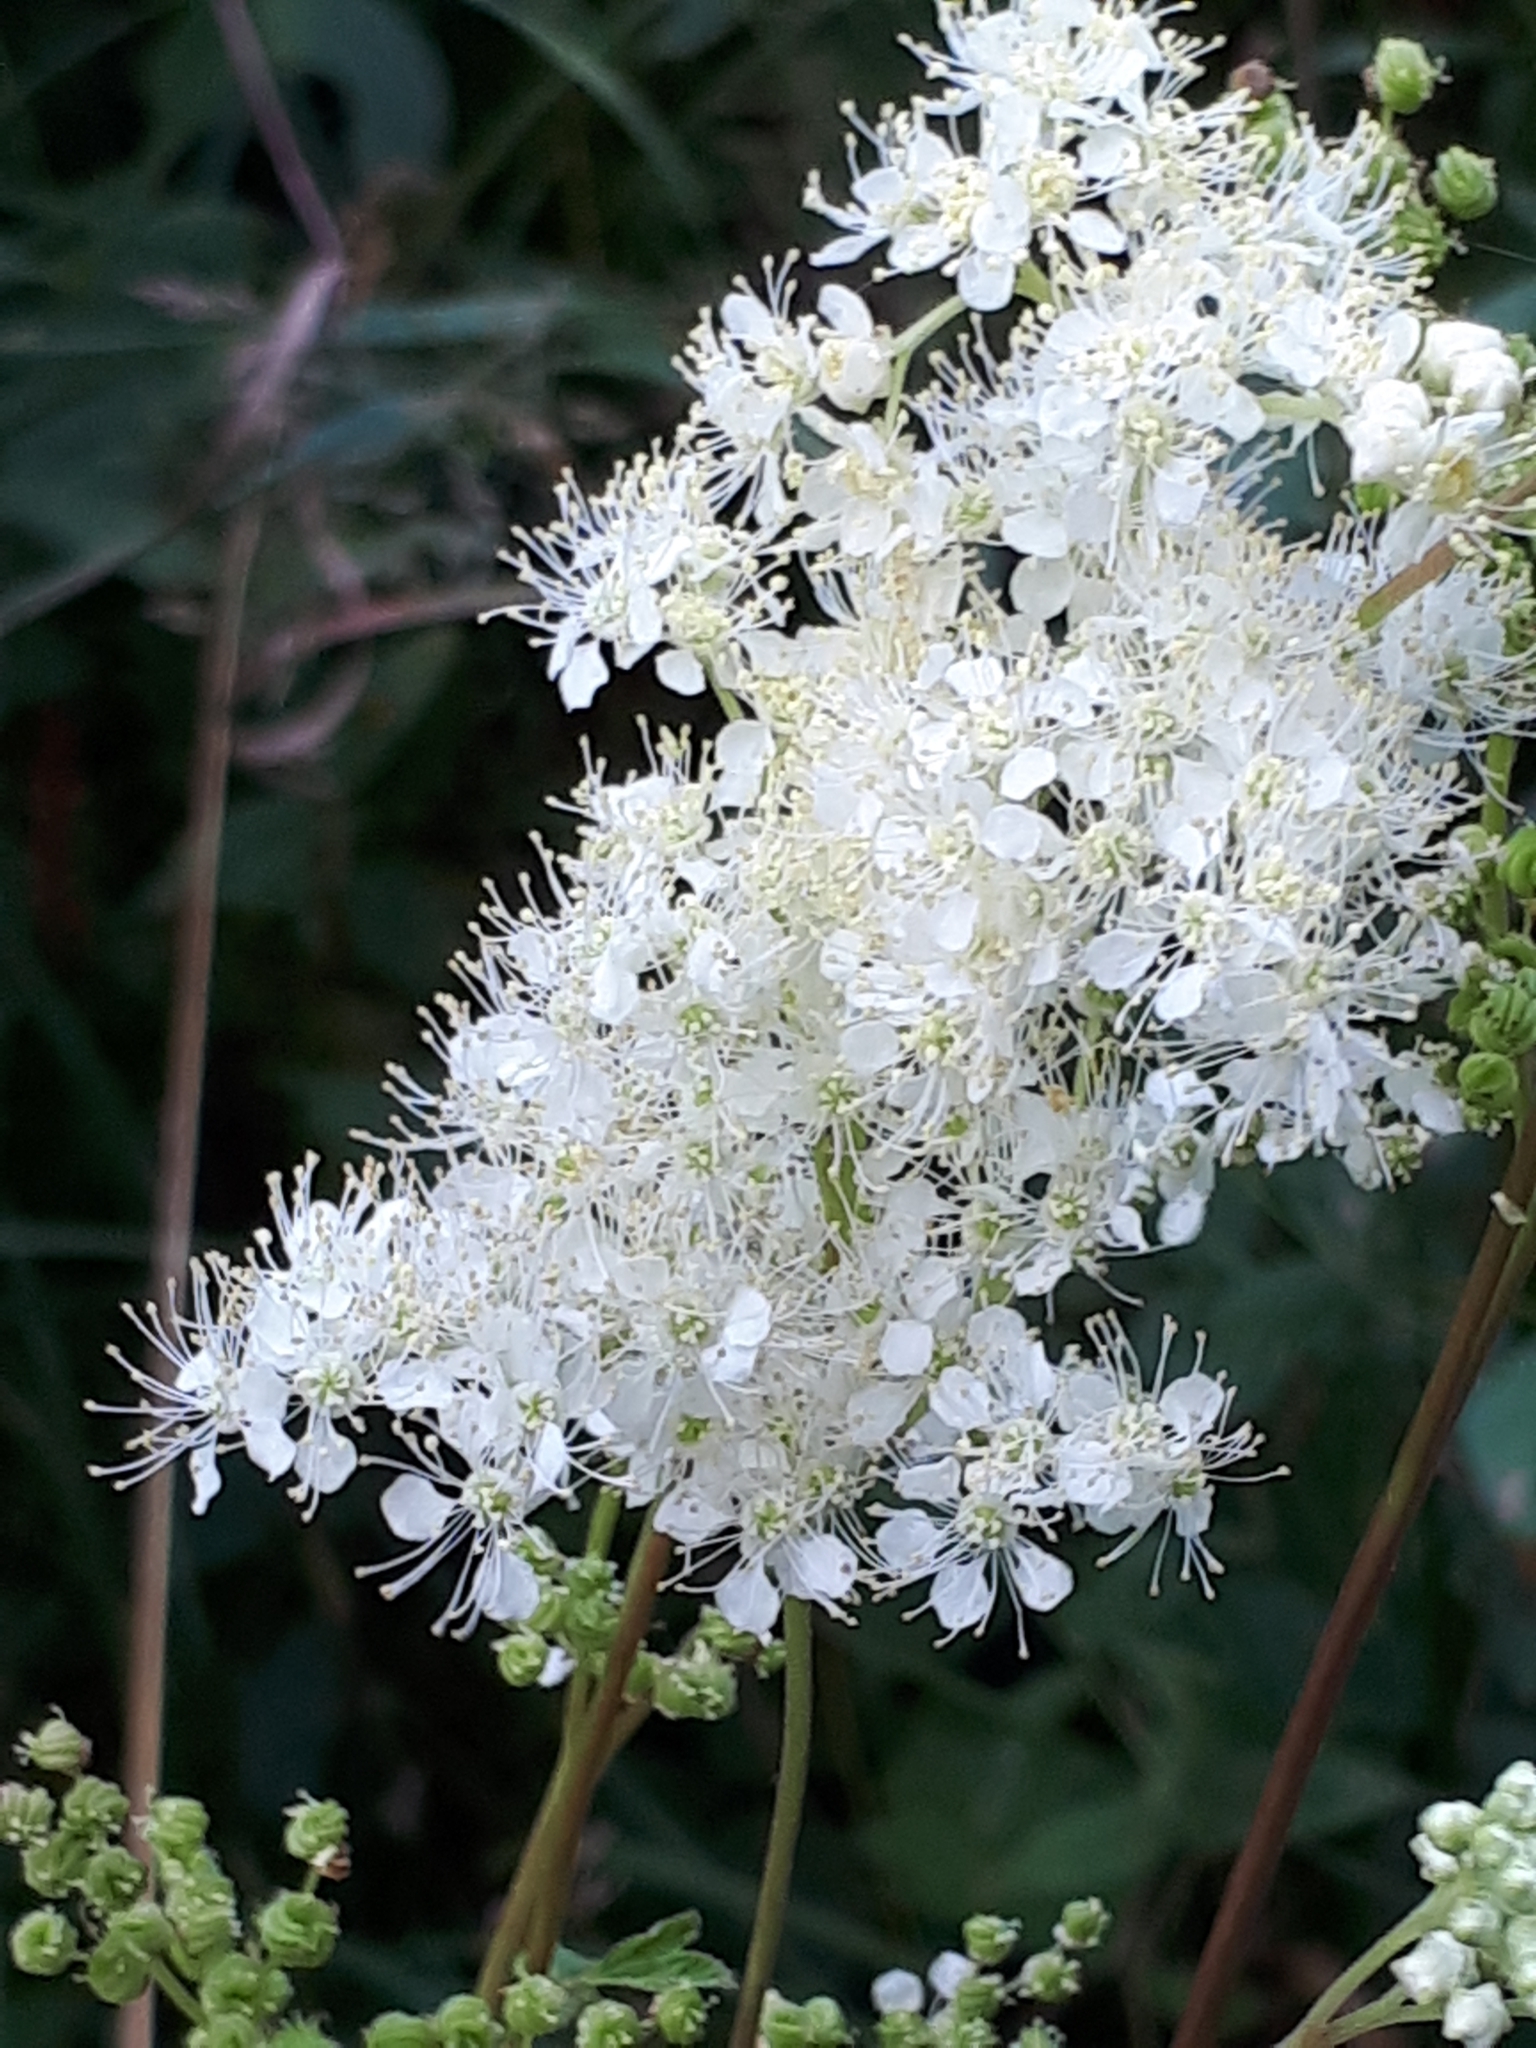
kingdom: Plantae
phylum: Tracheophyta
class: Magnoliopsida
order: Rosales
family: Rosaceae
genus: Filipendula
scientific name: Filipendula ulmaria
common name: Meadowsweet
